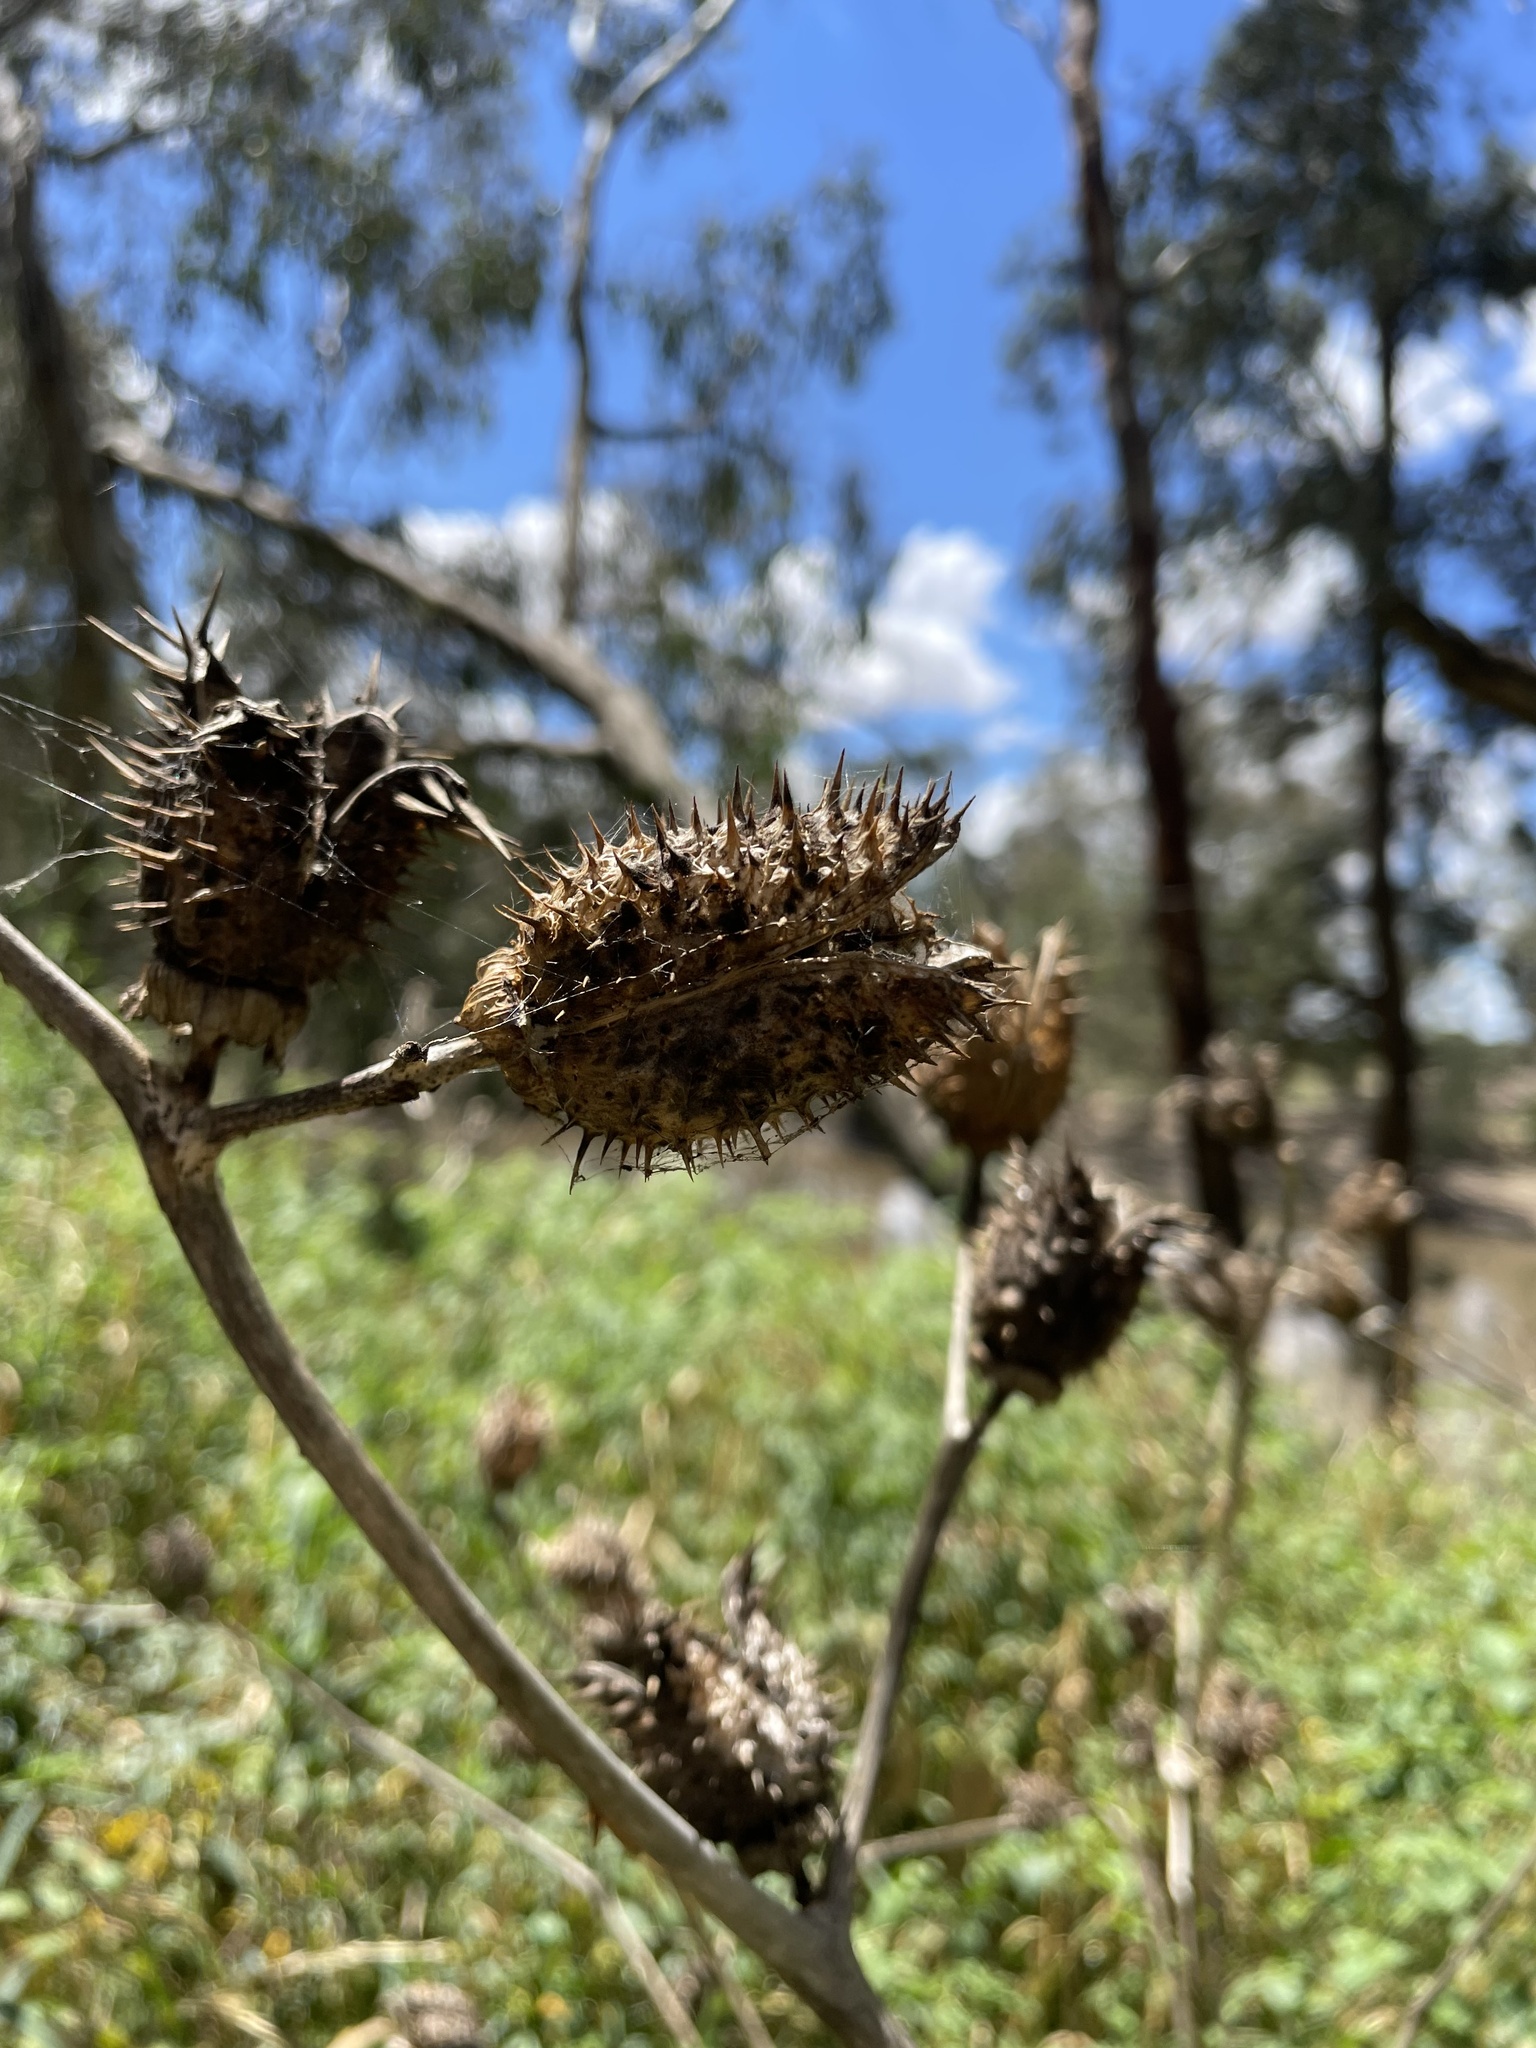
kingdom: Plantae
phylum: Tracheophyta
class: Magnoliopsida
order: Solanales
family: Solanaceae
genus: Datura
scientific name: Datura stramonium
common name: Thorn-apple
